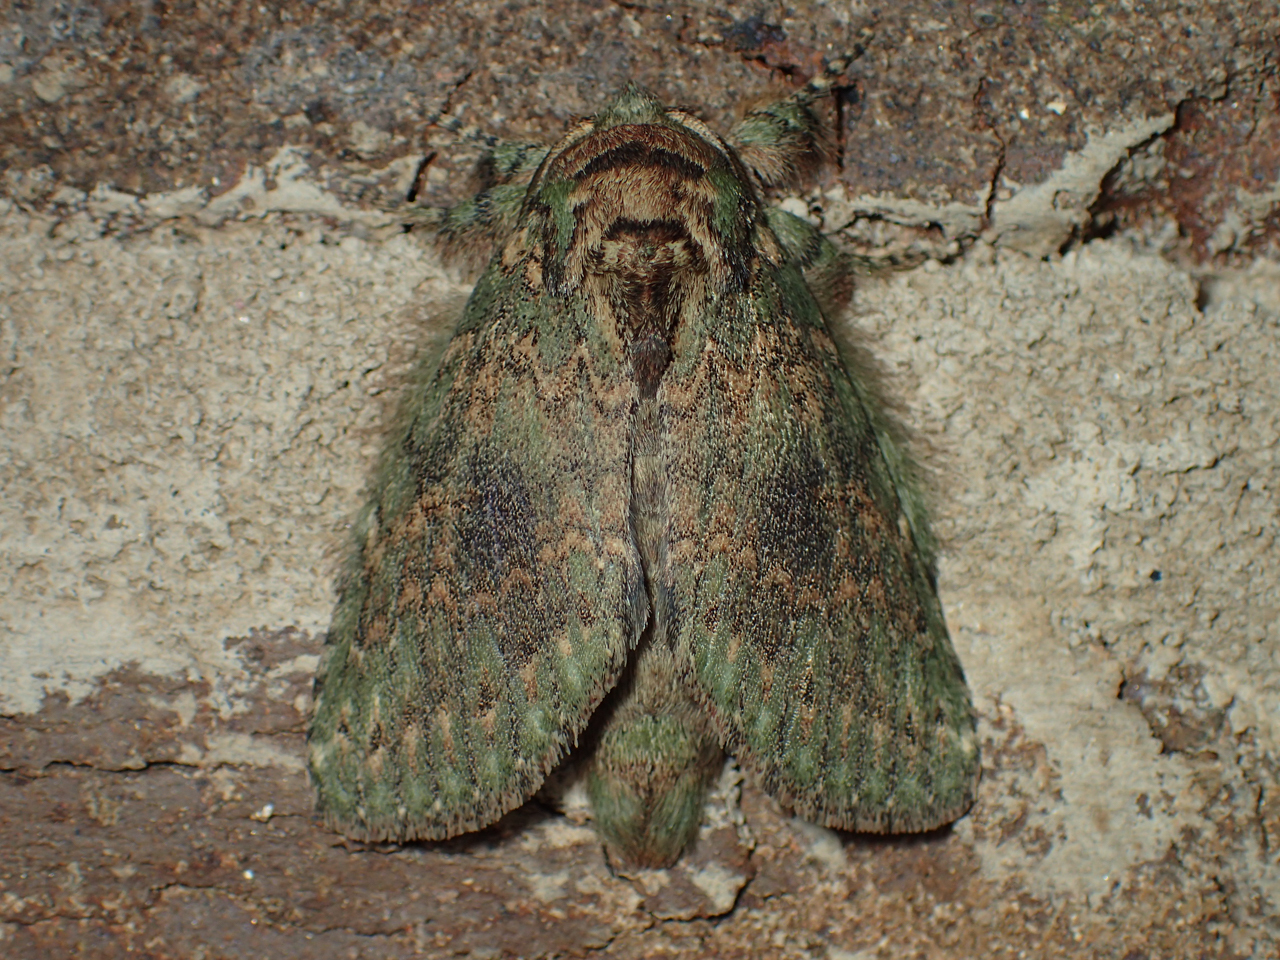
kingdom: Animalia
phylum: Arthropoda
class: Insecta
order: Lepidoptera
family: Notodontidae
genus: Disphragis
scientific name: Disphragis Cecrita biundata
